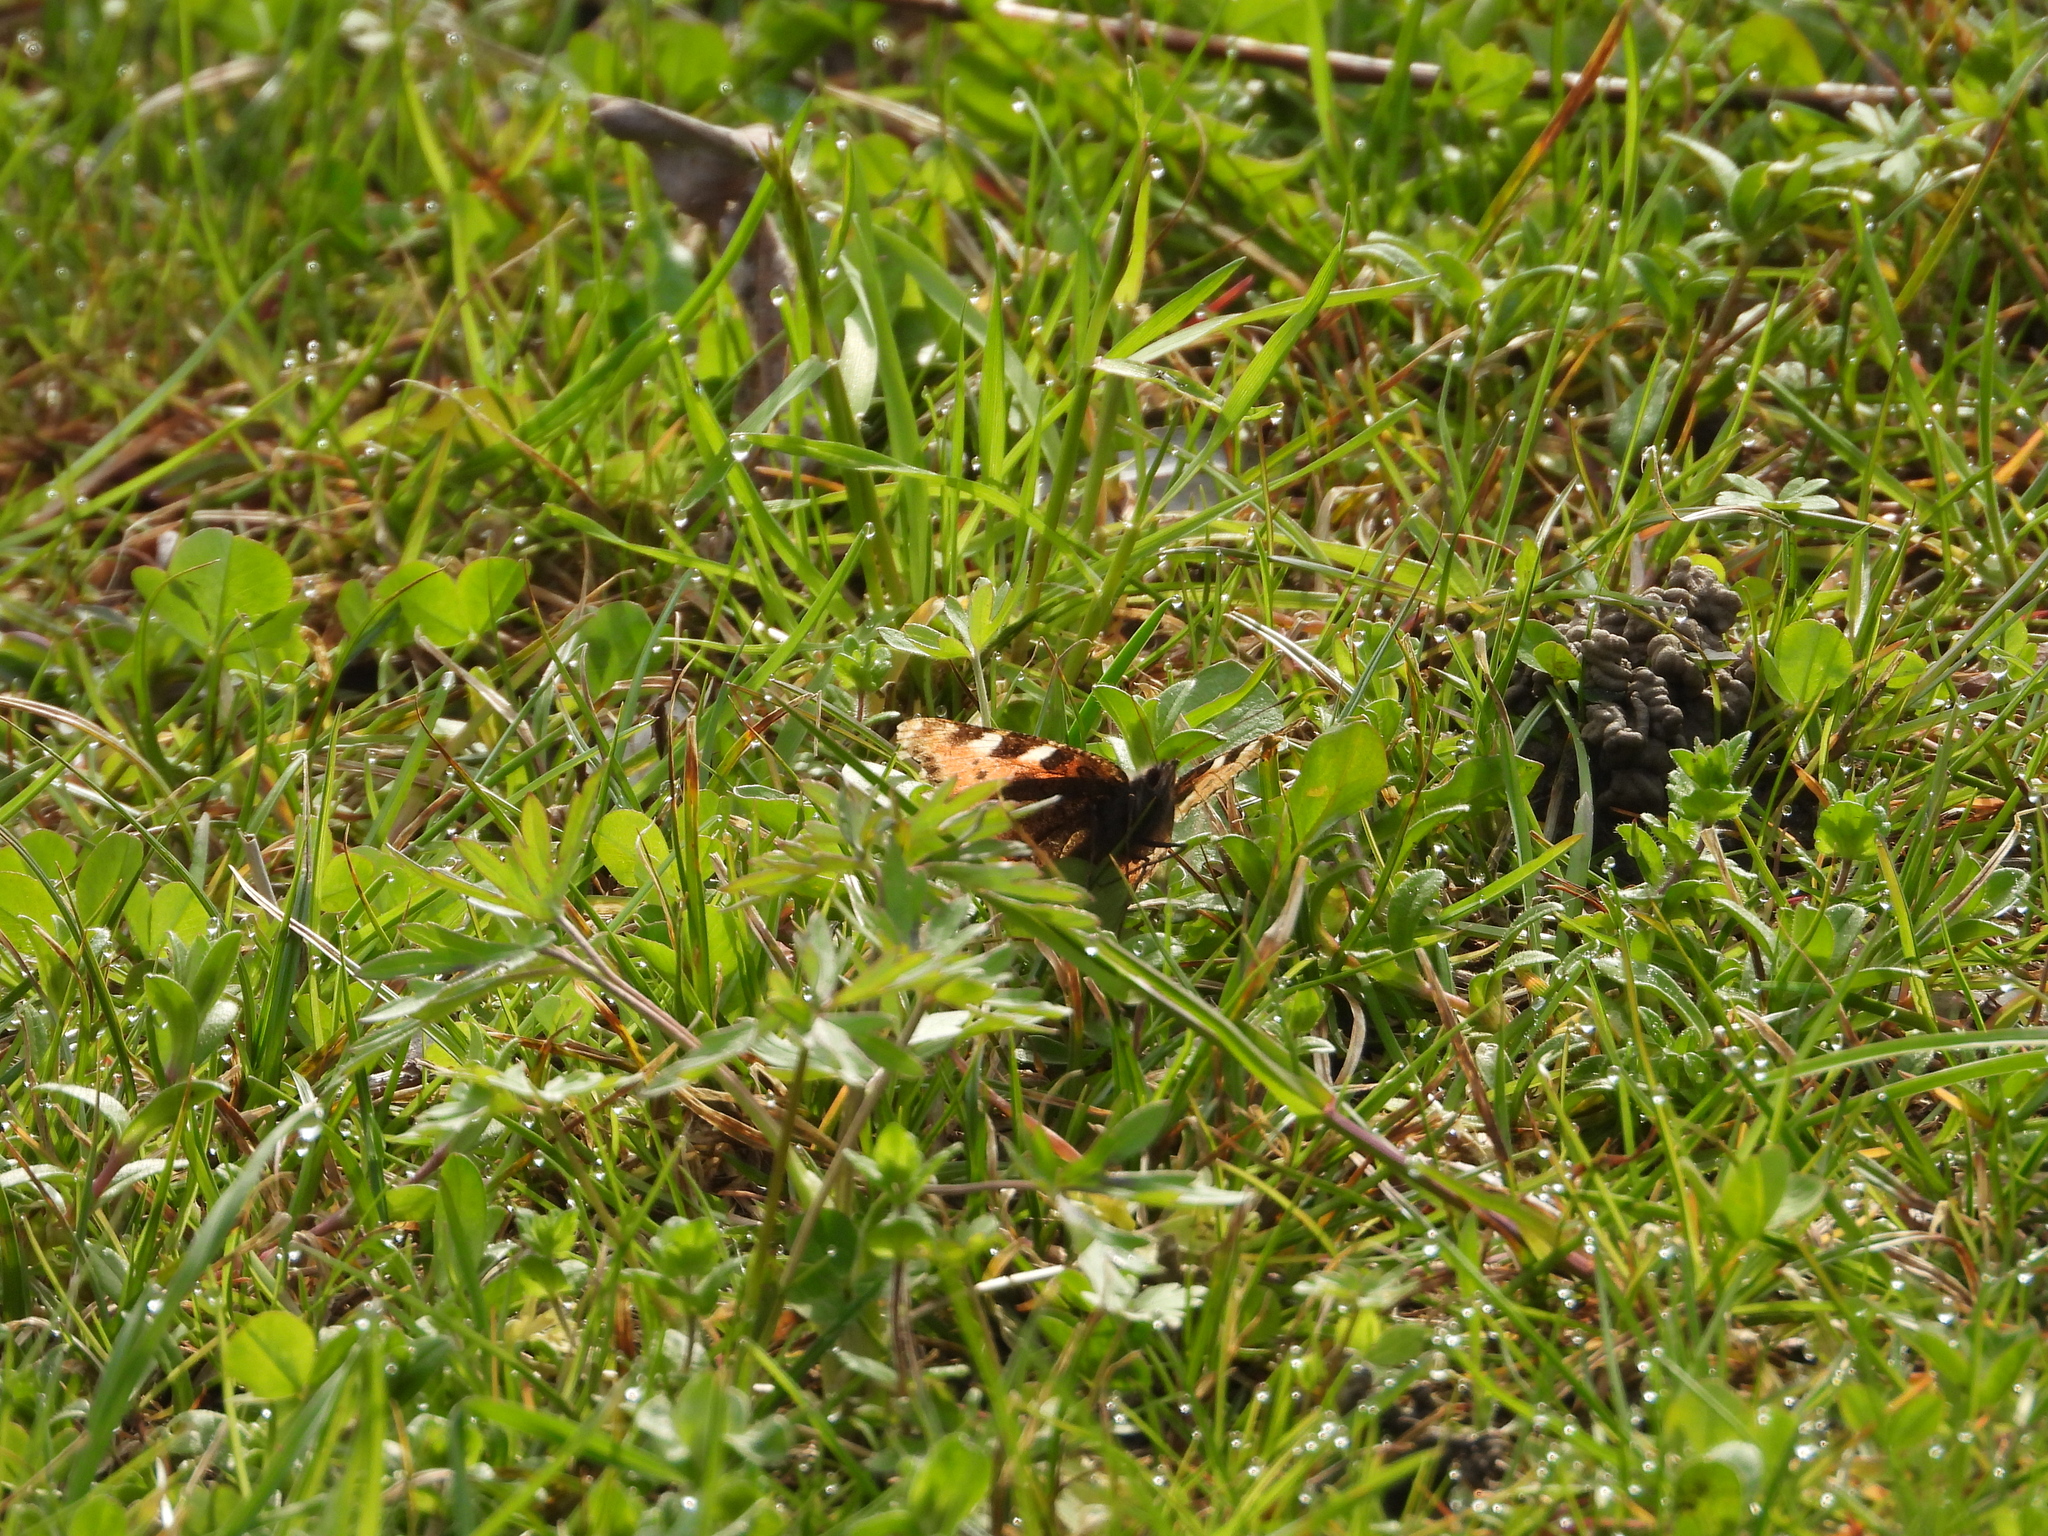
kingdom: Animalia
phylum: Arthropoda
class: Insecta
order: Lepidoptera
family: Nymphalidae
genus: Aglais
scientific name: Aglais urticae
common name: Small tortoiseshell
